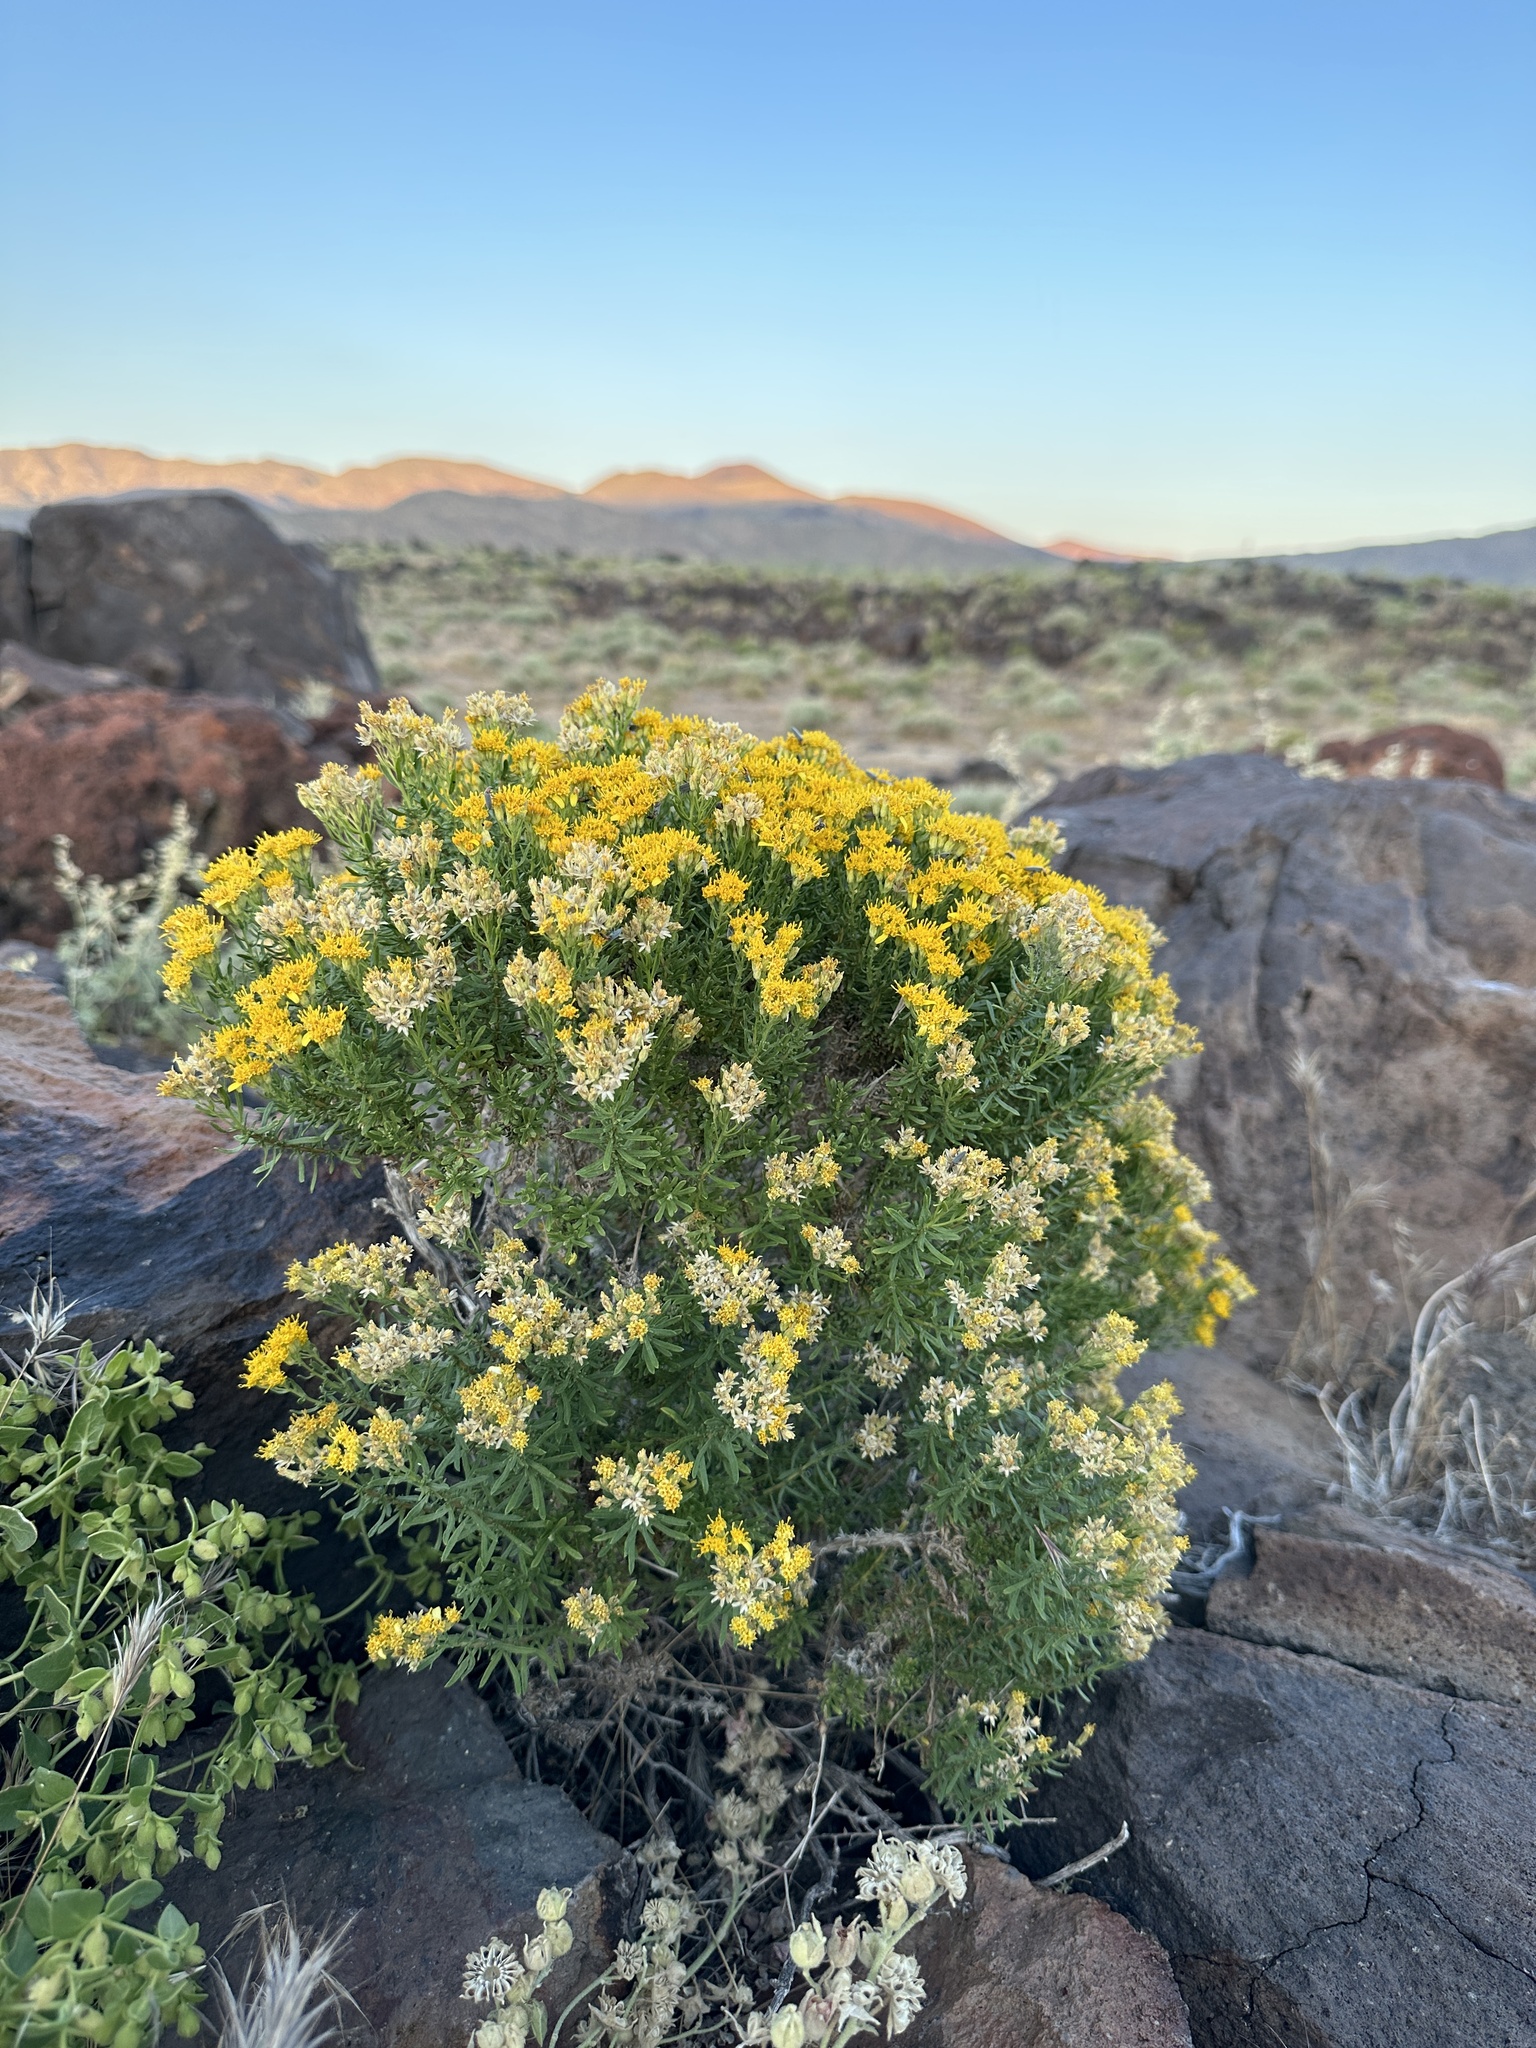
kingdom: Plantae
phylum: Tracheophyta
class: Magnoliopsida
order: Asterales
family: Asteraceae
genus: Ericameria
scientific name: Ericameria cooperi
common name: Cooper's goldenbush
